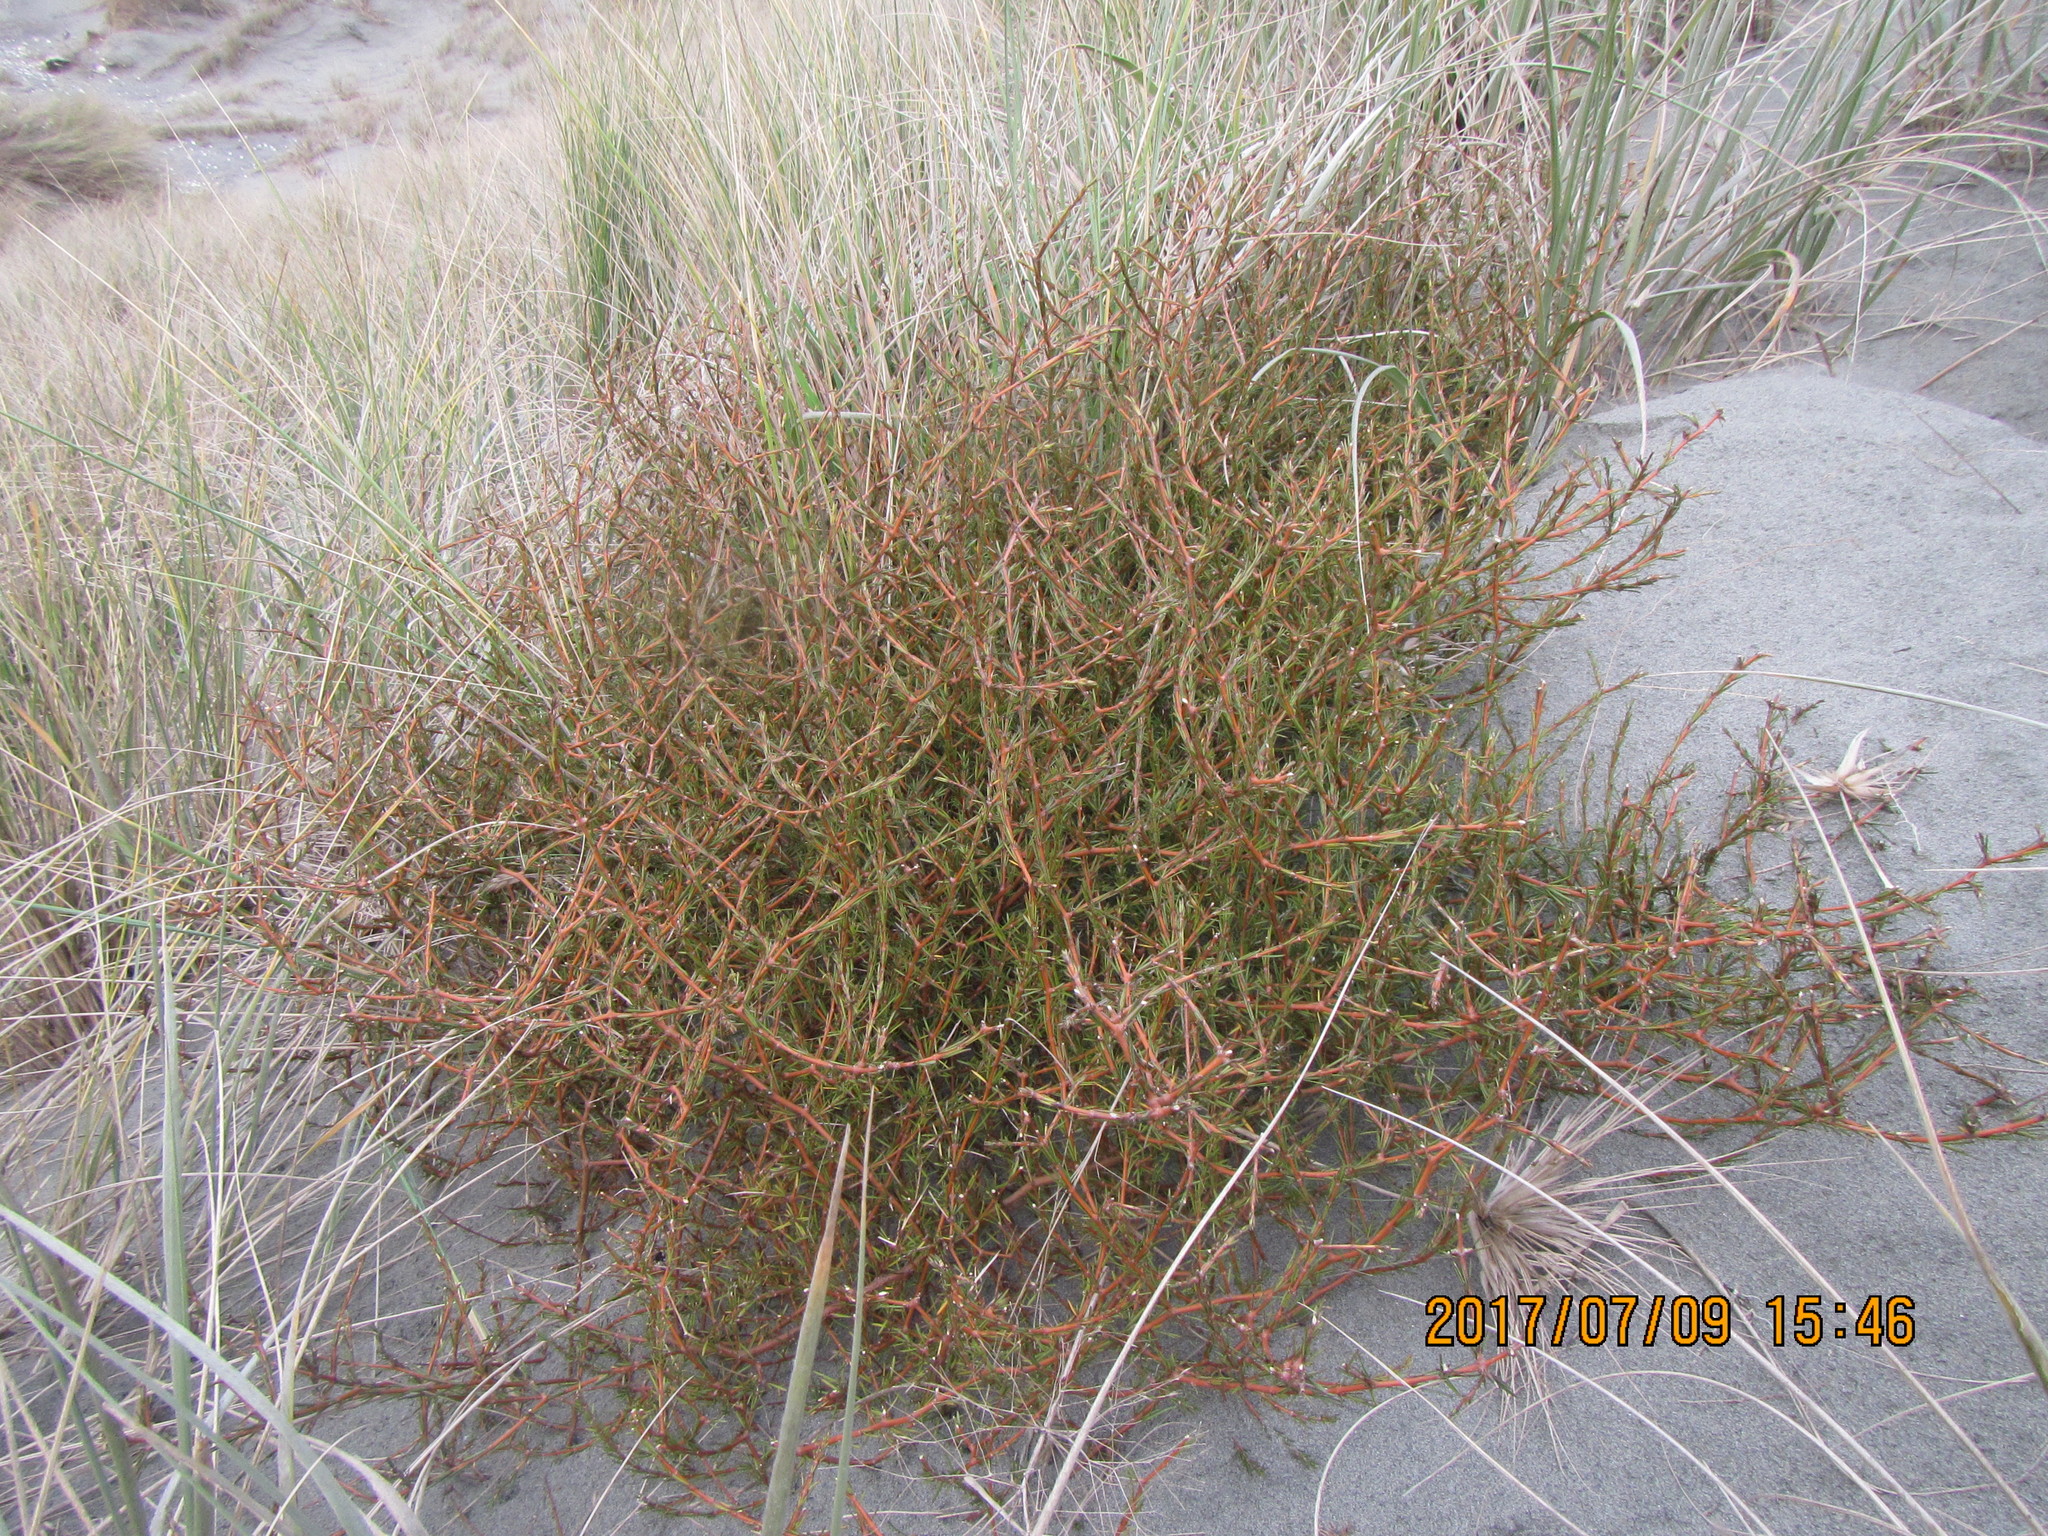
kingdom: Plantae
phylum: Tracheophyta
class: Magnoliopsida
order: Gentianales
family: Rubiaceae
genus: Coprosma
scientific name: Coprosma acerosa
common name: Sand coprosma
